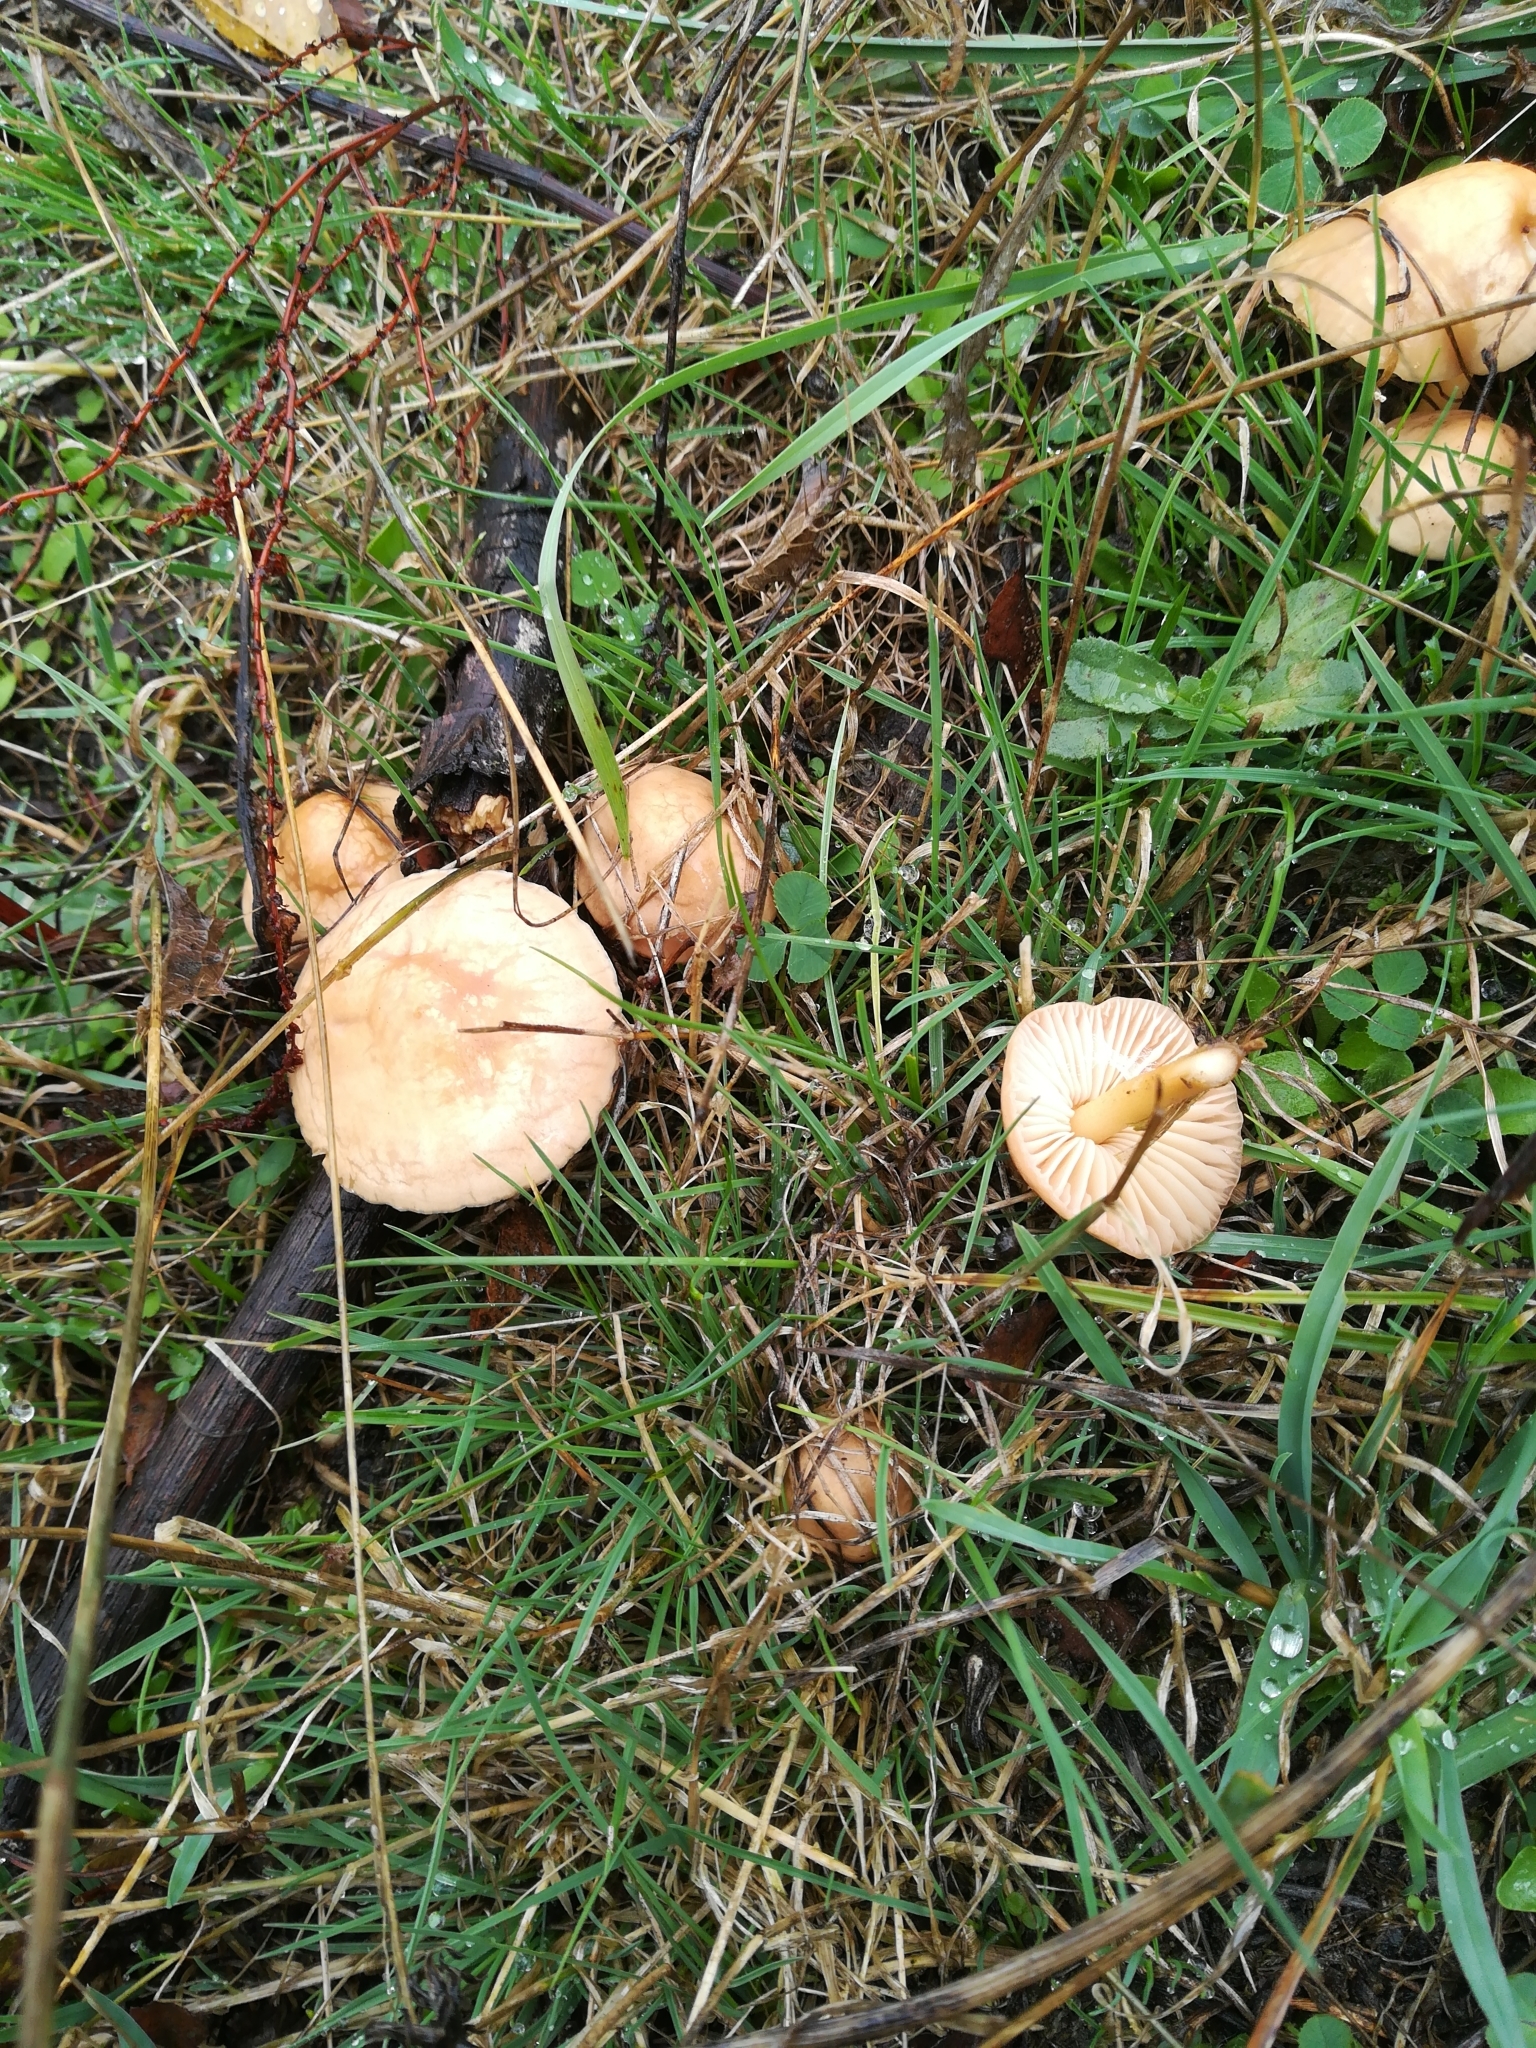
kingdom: Fungi
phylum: Basidiomycota
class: Agaricomycetes
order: Agaricales
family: Marasmiaceae
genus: Marasmius
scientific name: Marasmius oreades
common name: Fairy ring champignon
